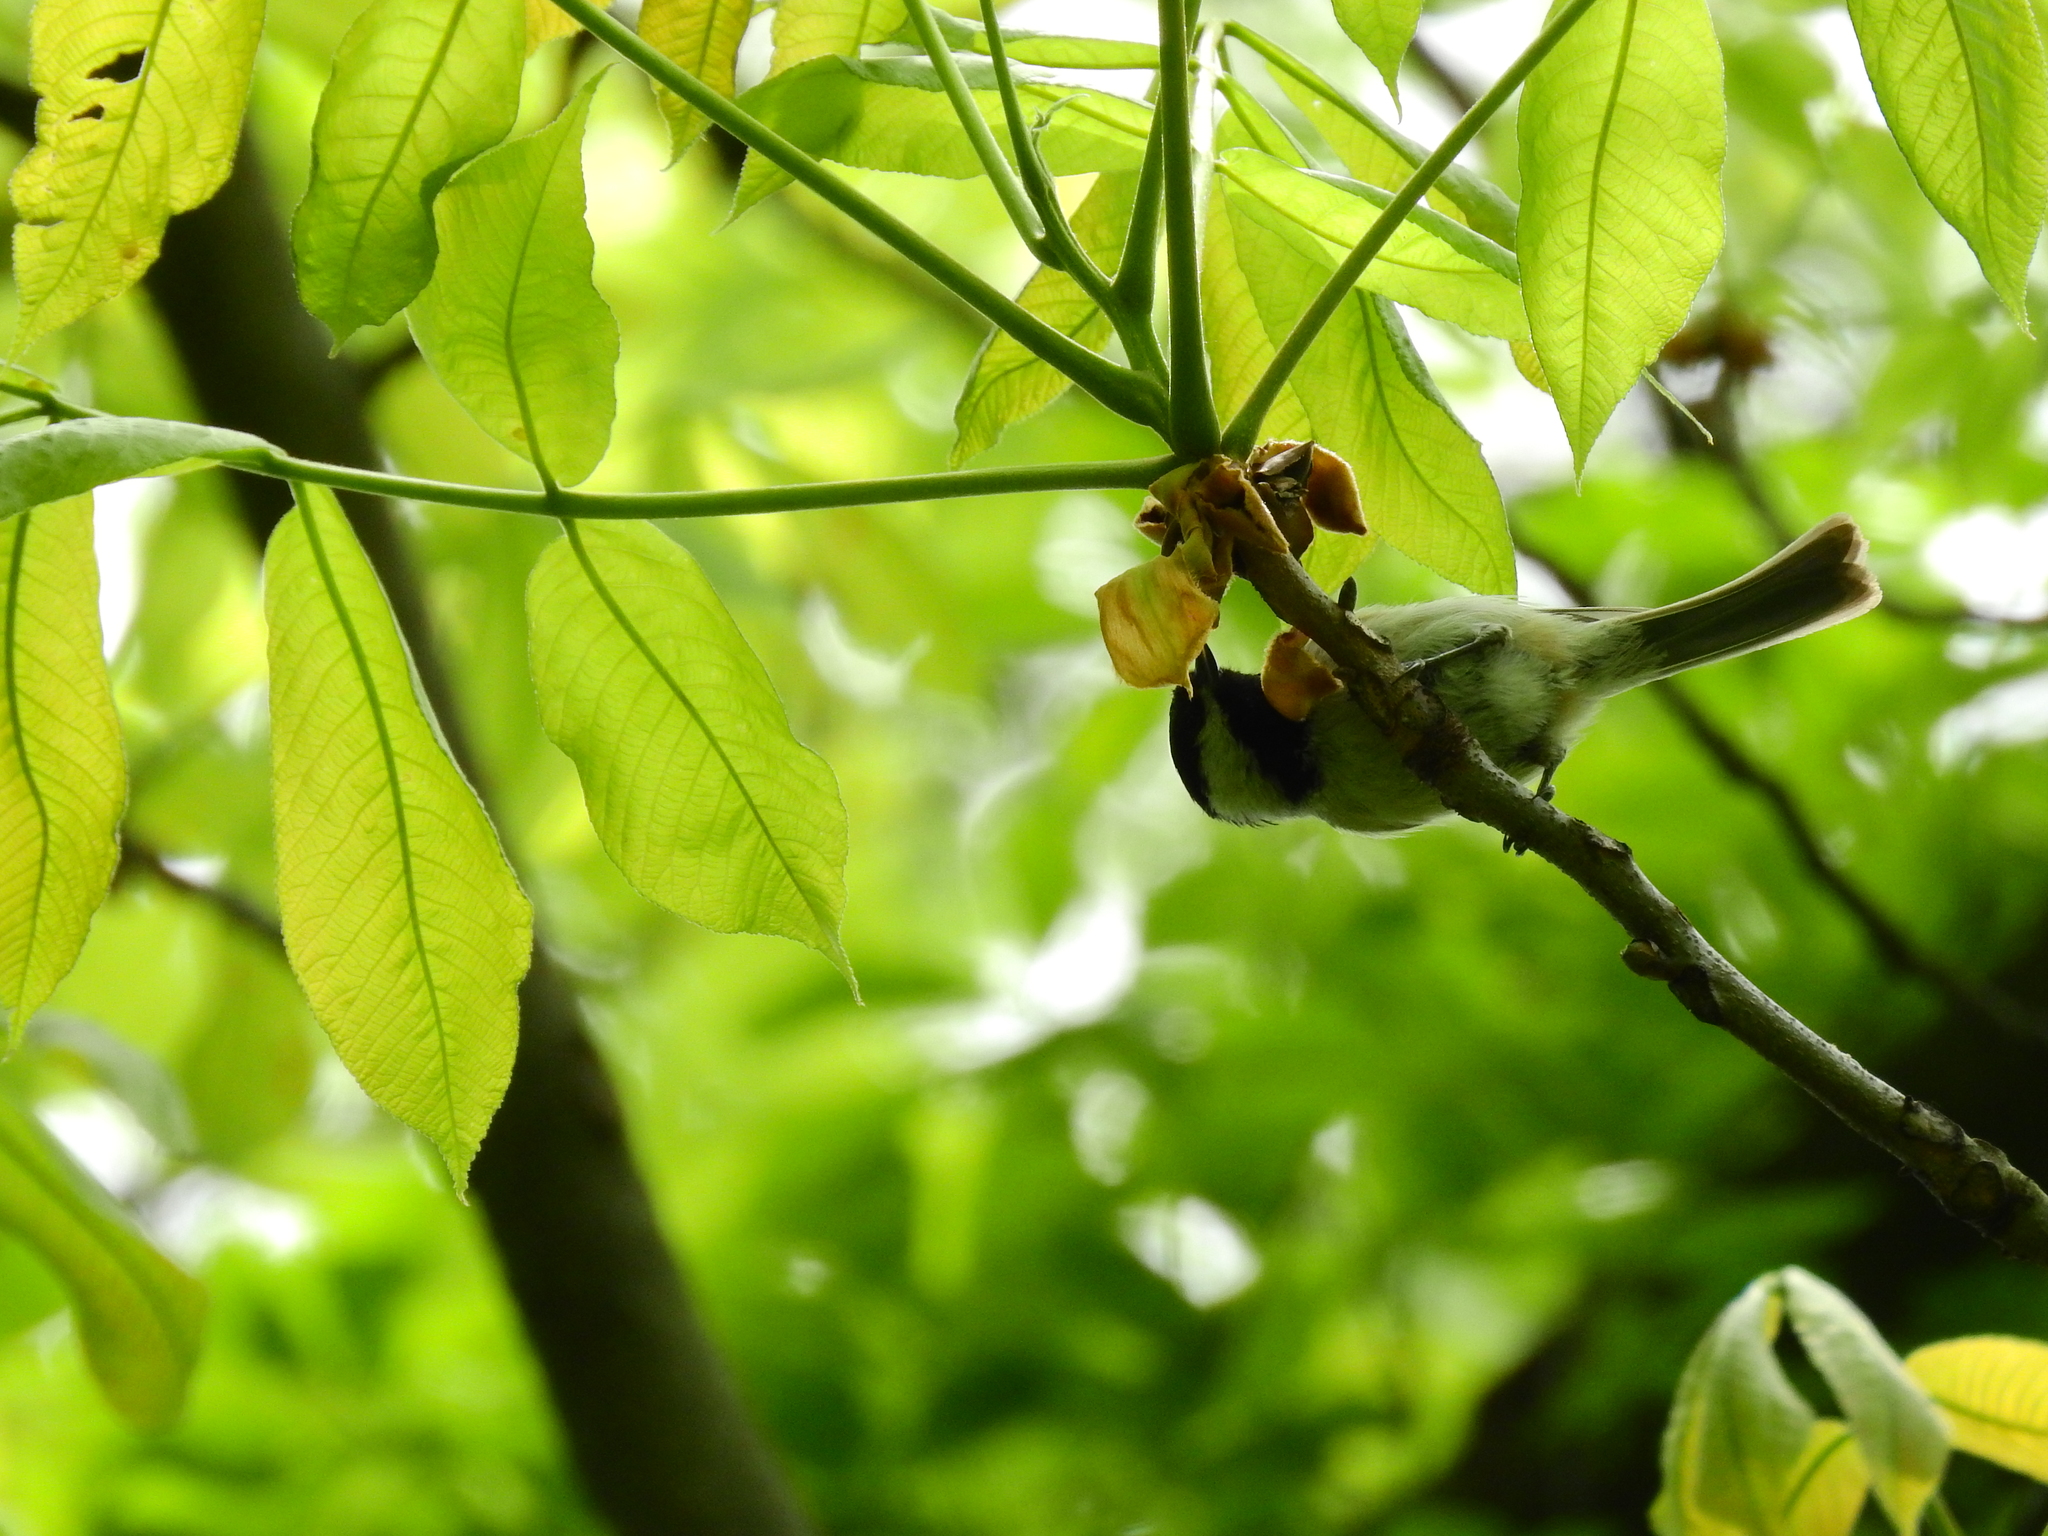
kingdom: Animalia
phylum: Chordata
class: Aves
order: Passeriformes
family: Paridae
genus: Poecile
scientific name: Poecile carolinensis
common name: Carolina chickadee
